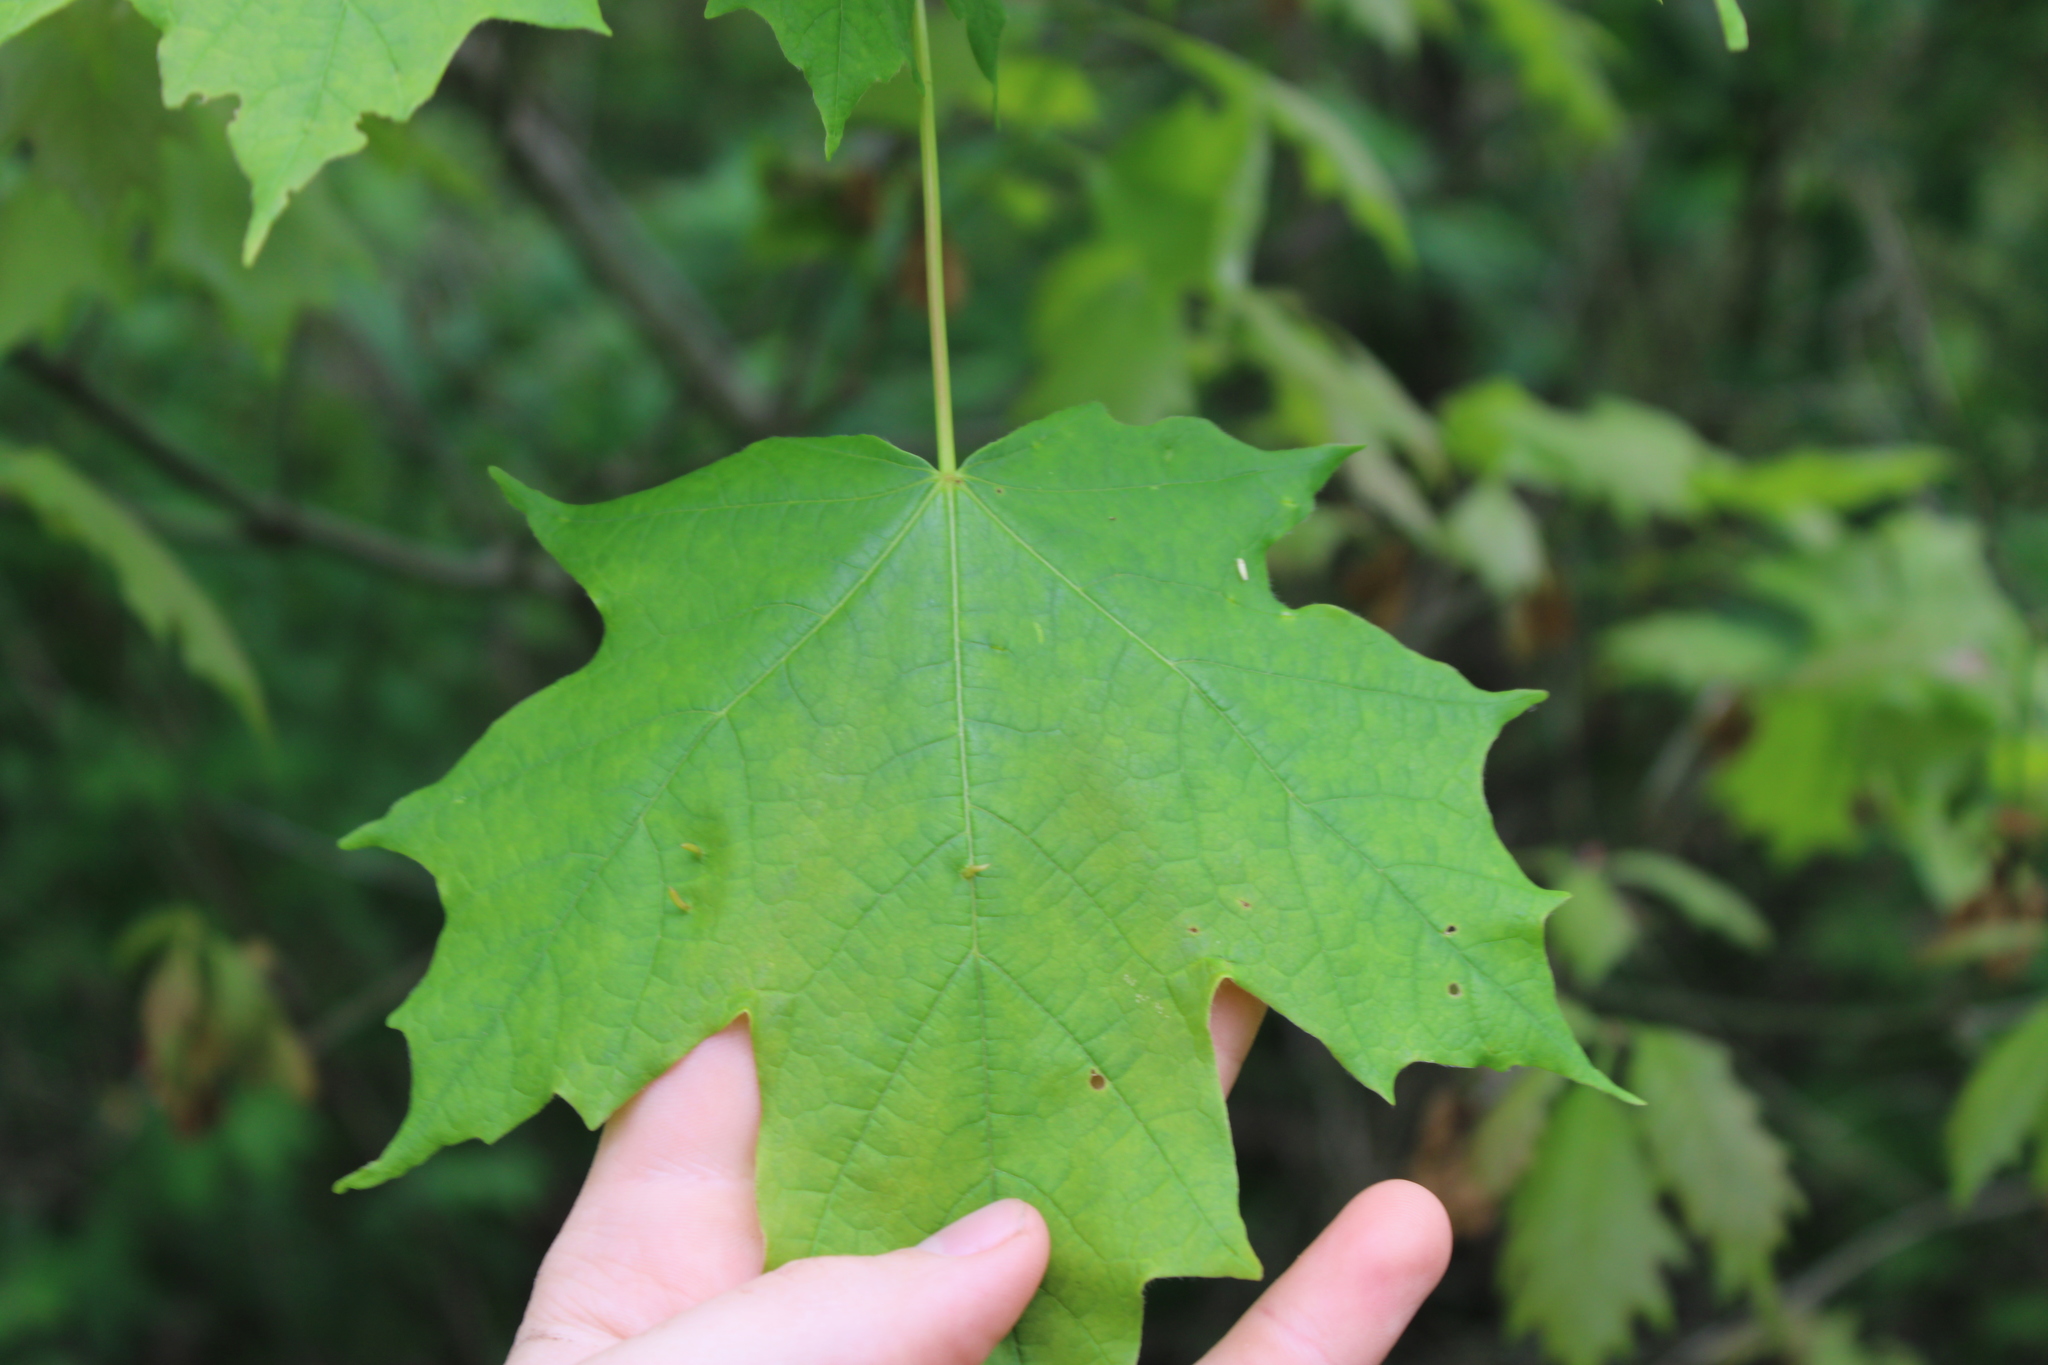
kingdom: Plantae
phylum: Tracheophyta
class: Magnoliopsida
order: Sapindales
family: Sapindaceae
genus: Acer
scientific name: Acer saccharum
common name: Sugar maple
